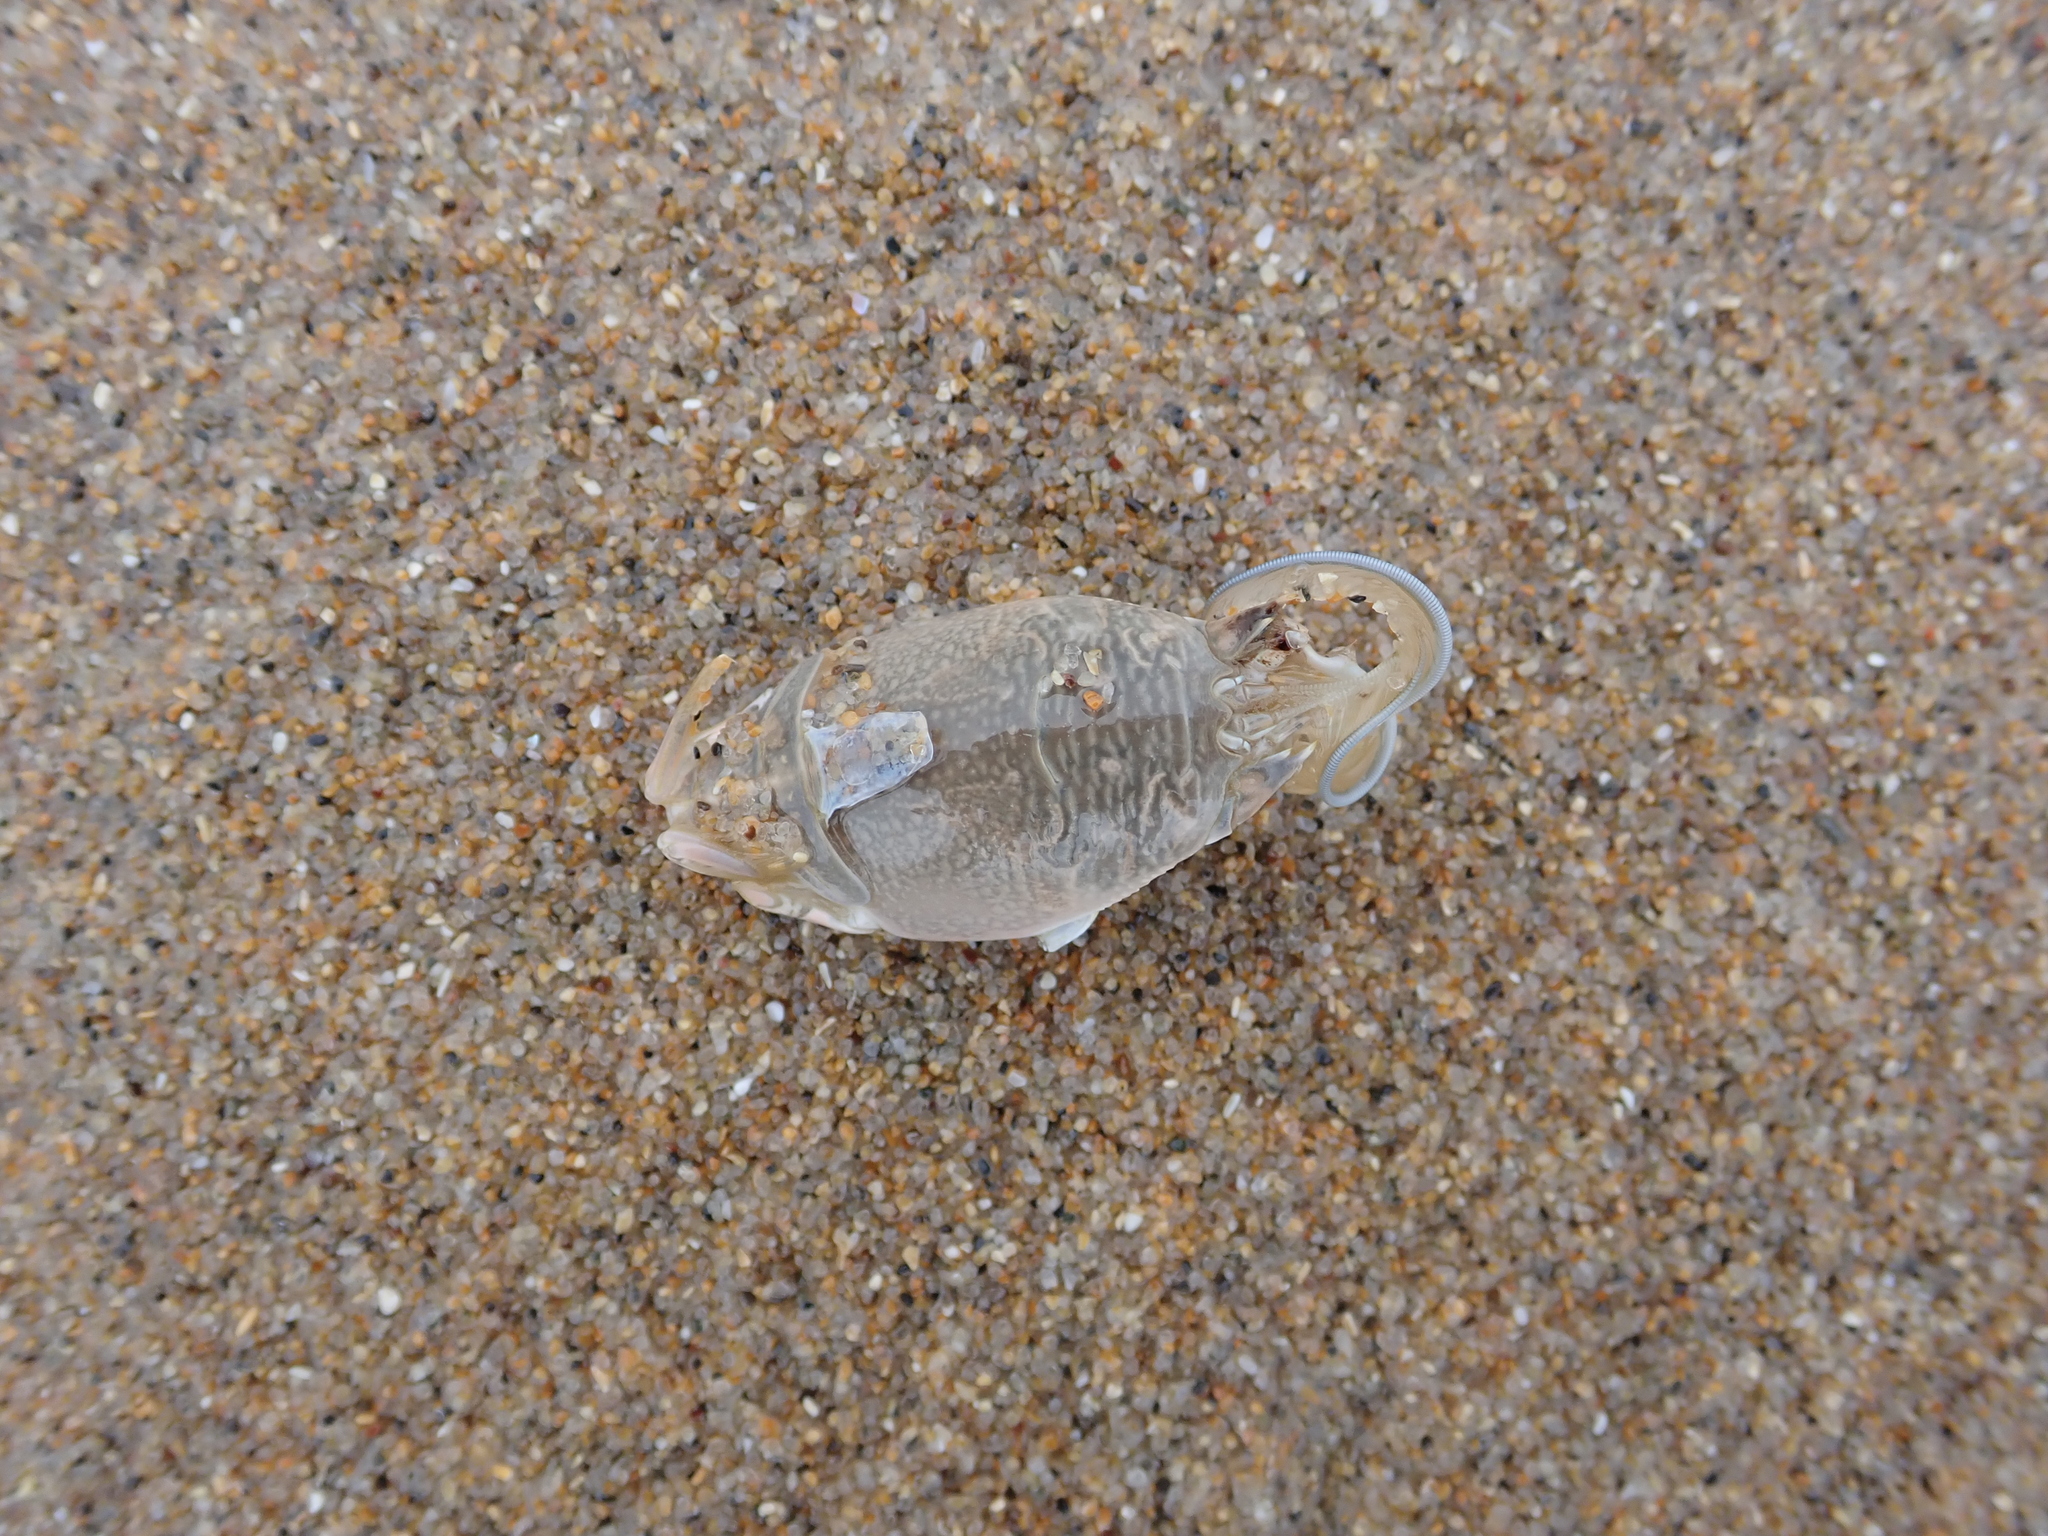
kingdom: Animalia
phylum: Arthropoda
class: Malacostraca
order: Decapoda
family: Hippidae
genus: Emerita
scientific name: Emerita analoga
